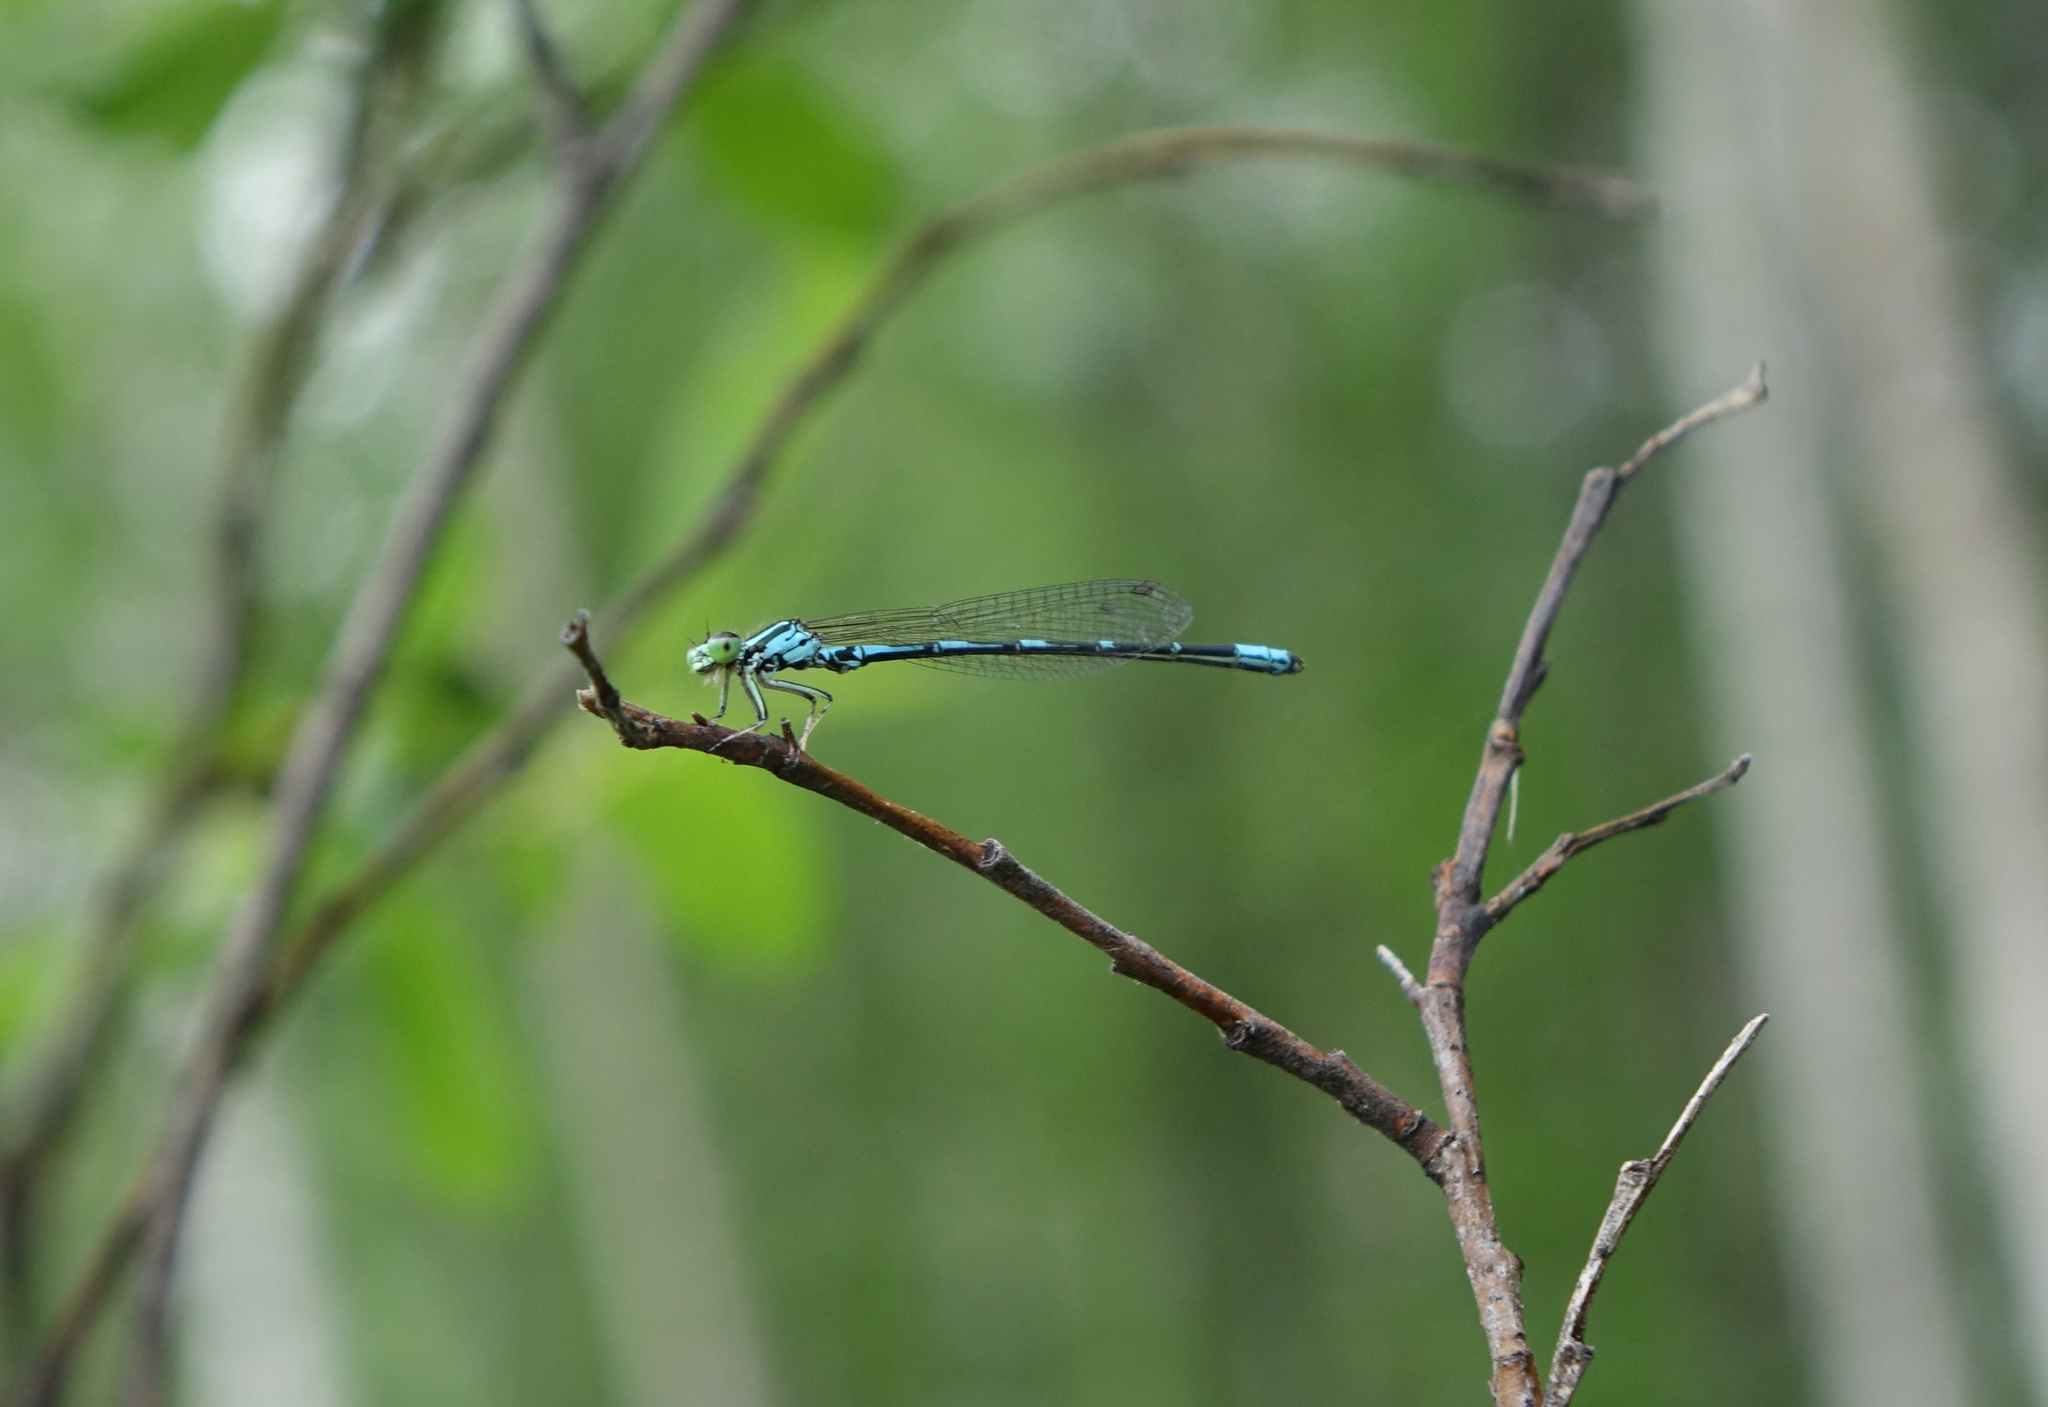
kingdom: Animalia
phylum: Arthropoda
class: Insecta
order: Odonata
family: Coenagrionidae
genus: Coenagrion
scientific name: Coenagrion johanssoni
